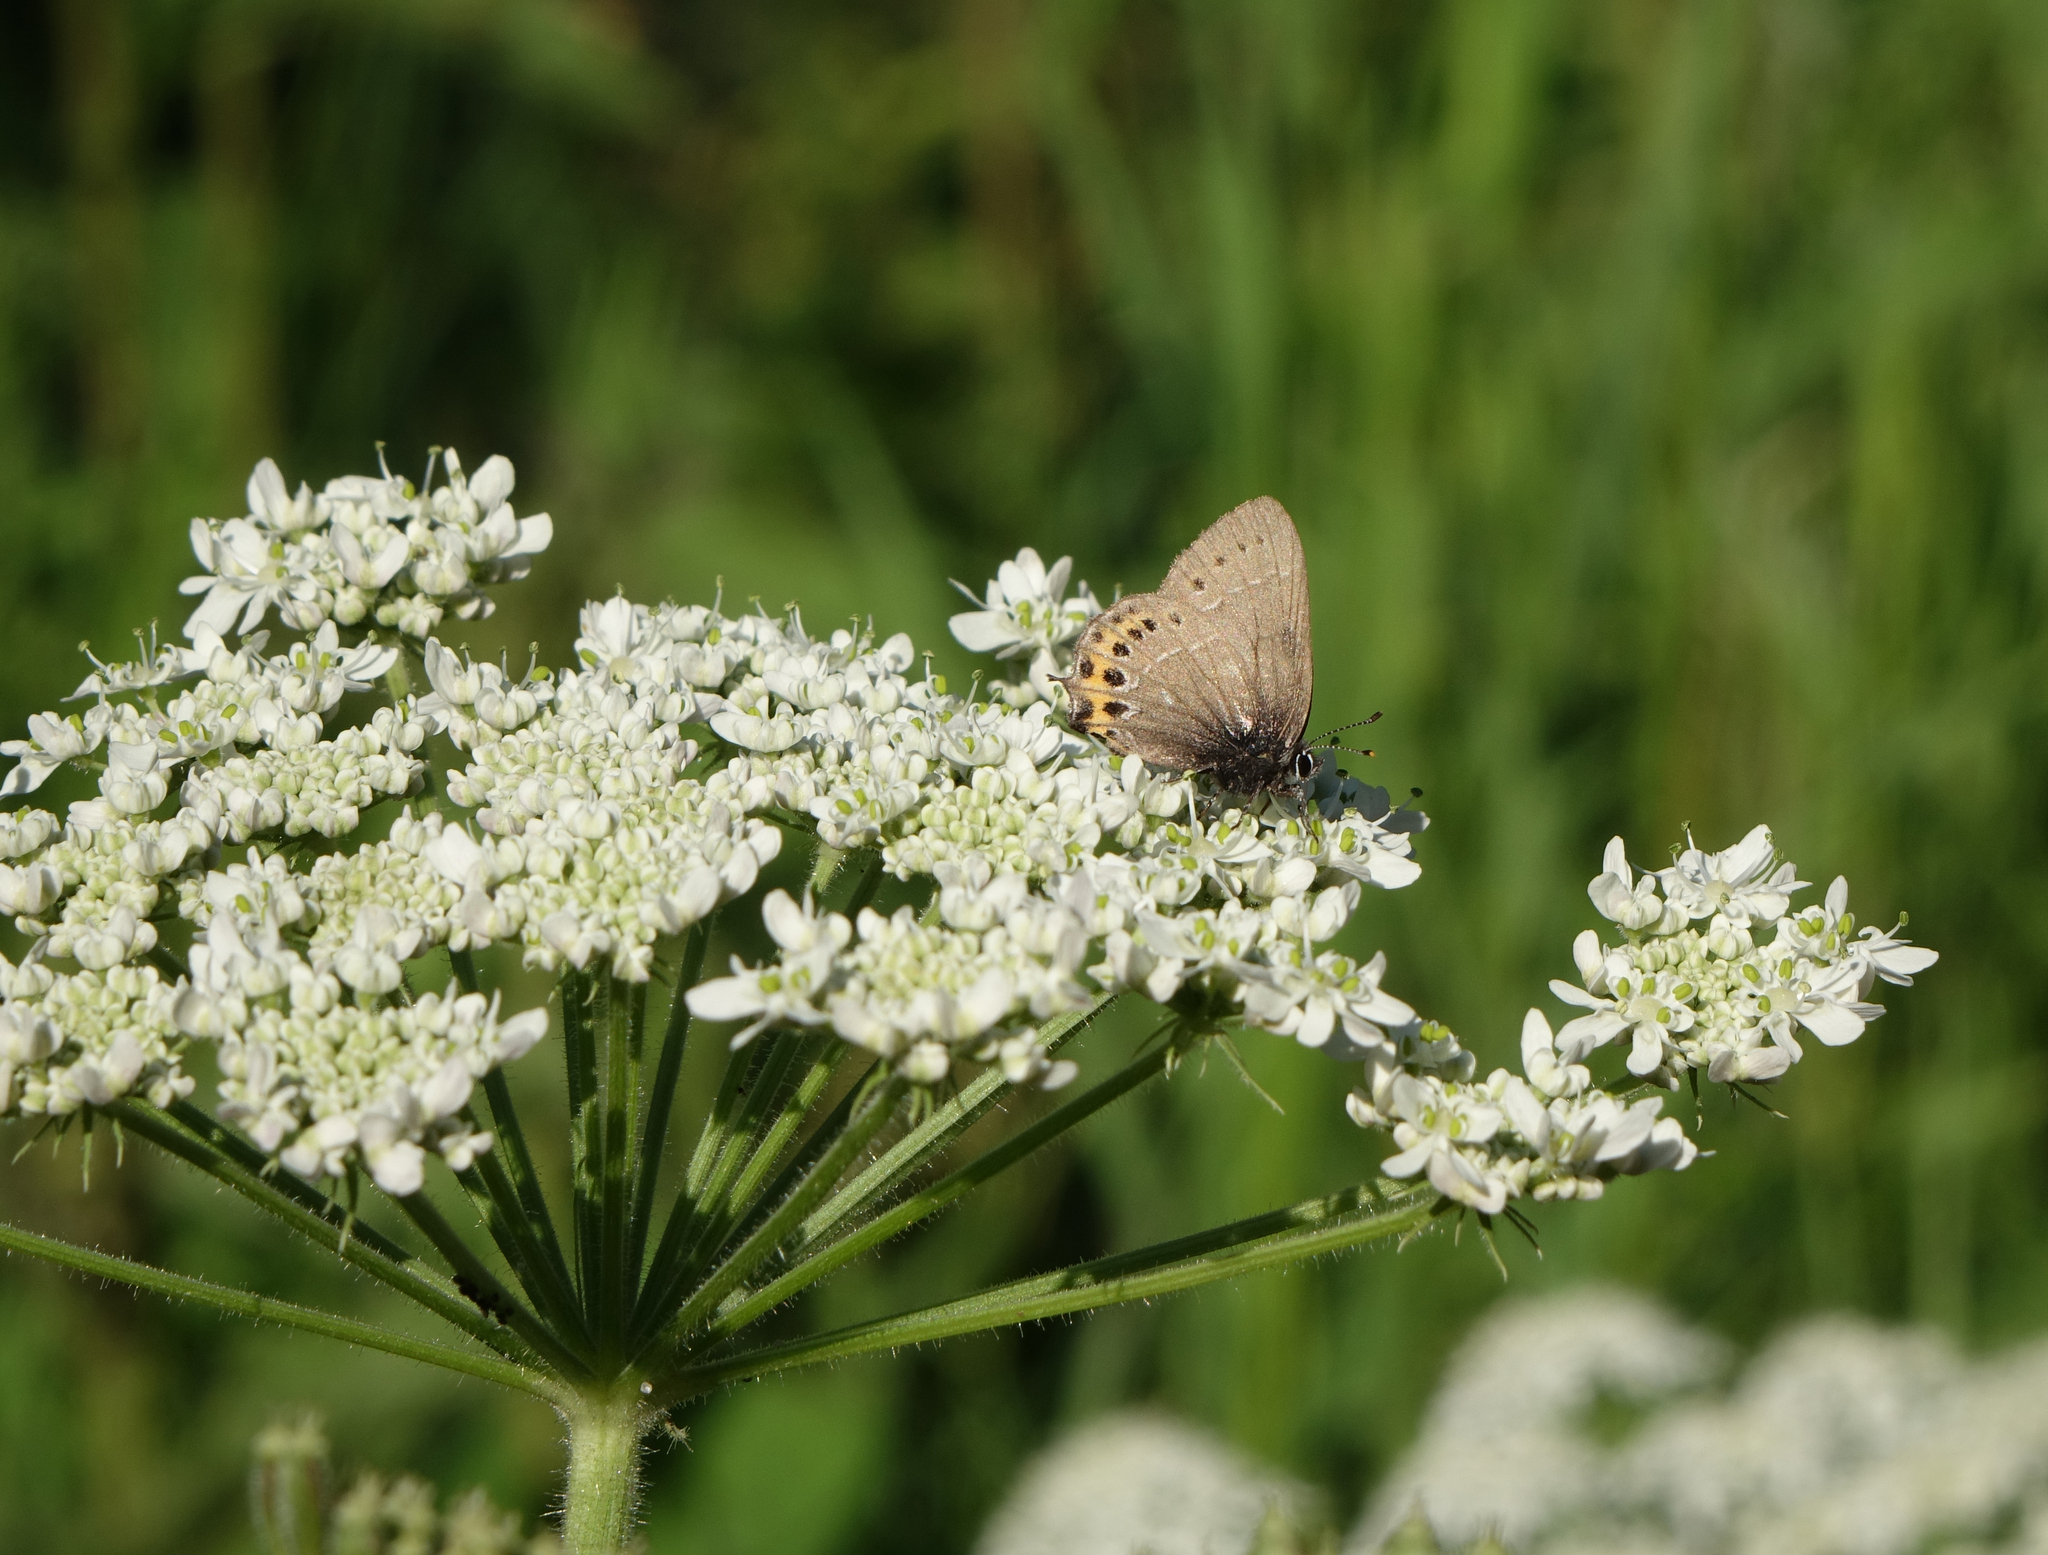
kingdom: Animalia
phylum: Arthropoda
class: Insecta
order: Lepidoptera
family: Lycaenidae
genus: Fixsenia
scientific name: Fixsenia pruni
